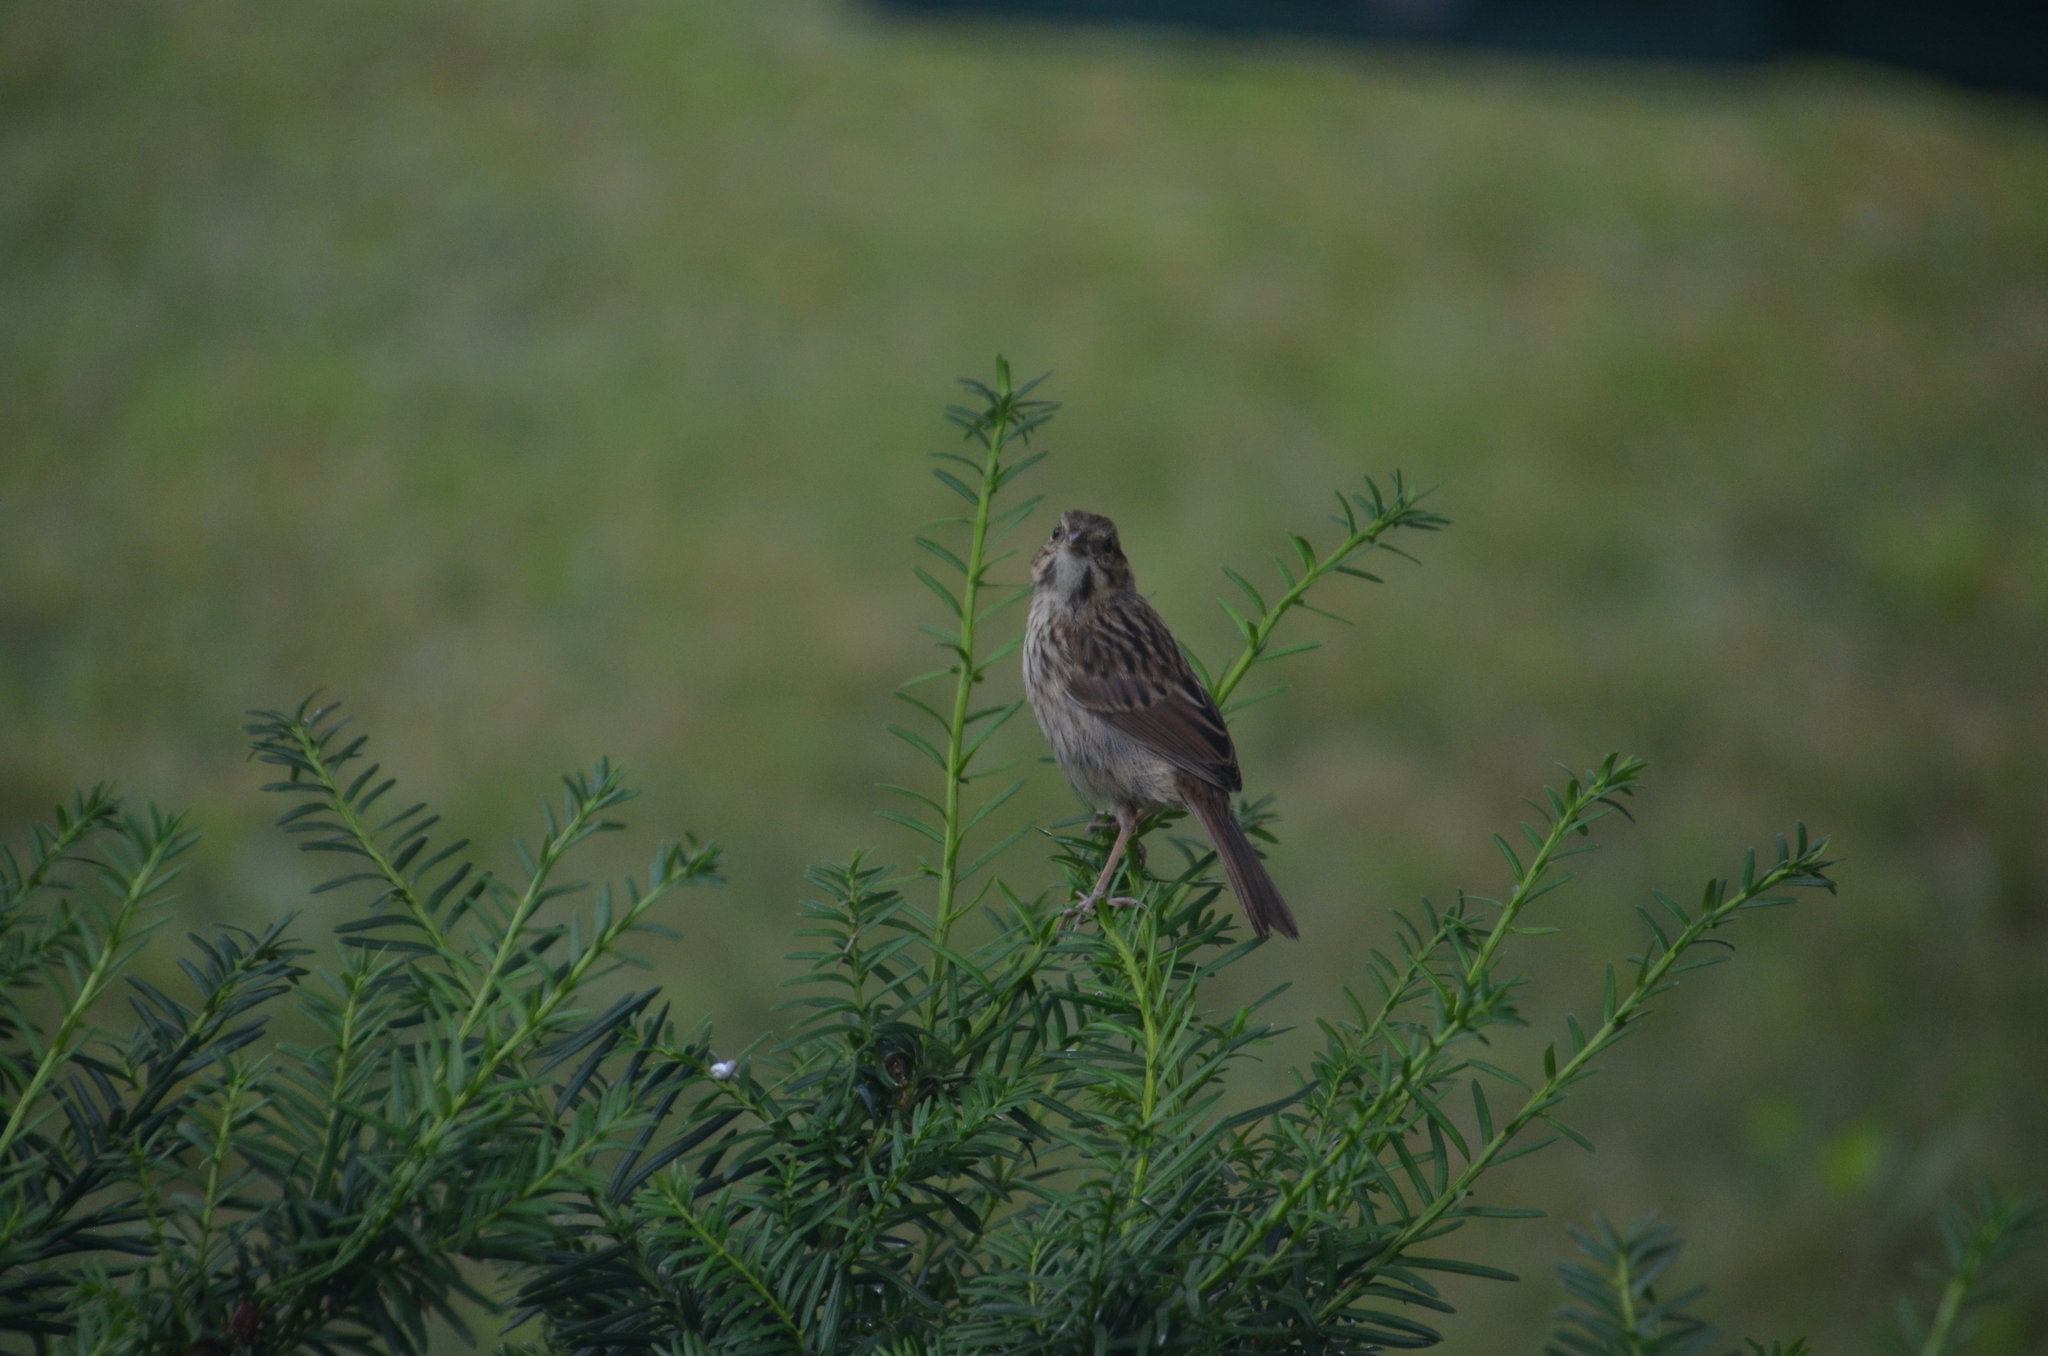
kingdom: Animalia
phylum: Chordata
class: Aves
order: Passeriformes
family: Passerellidae
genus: Melospiza
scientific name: Melospiza melodia
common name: Song sparrow
